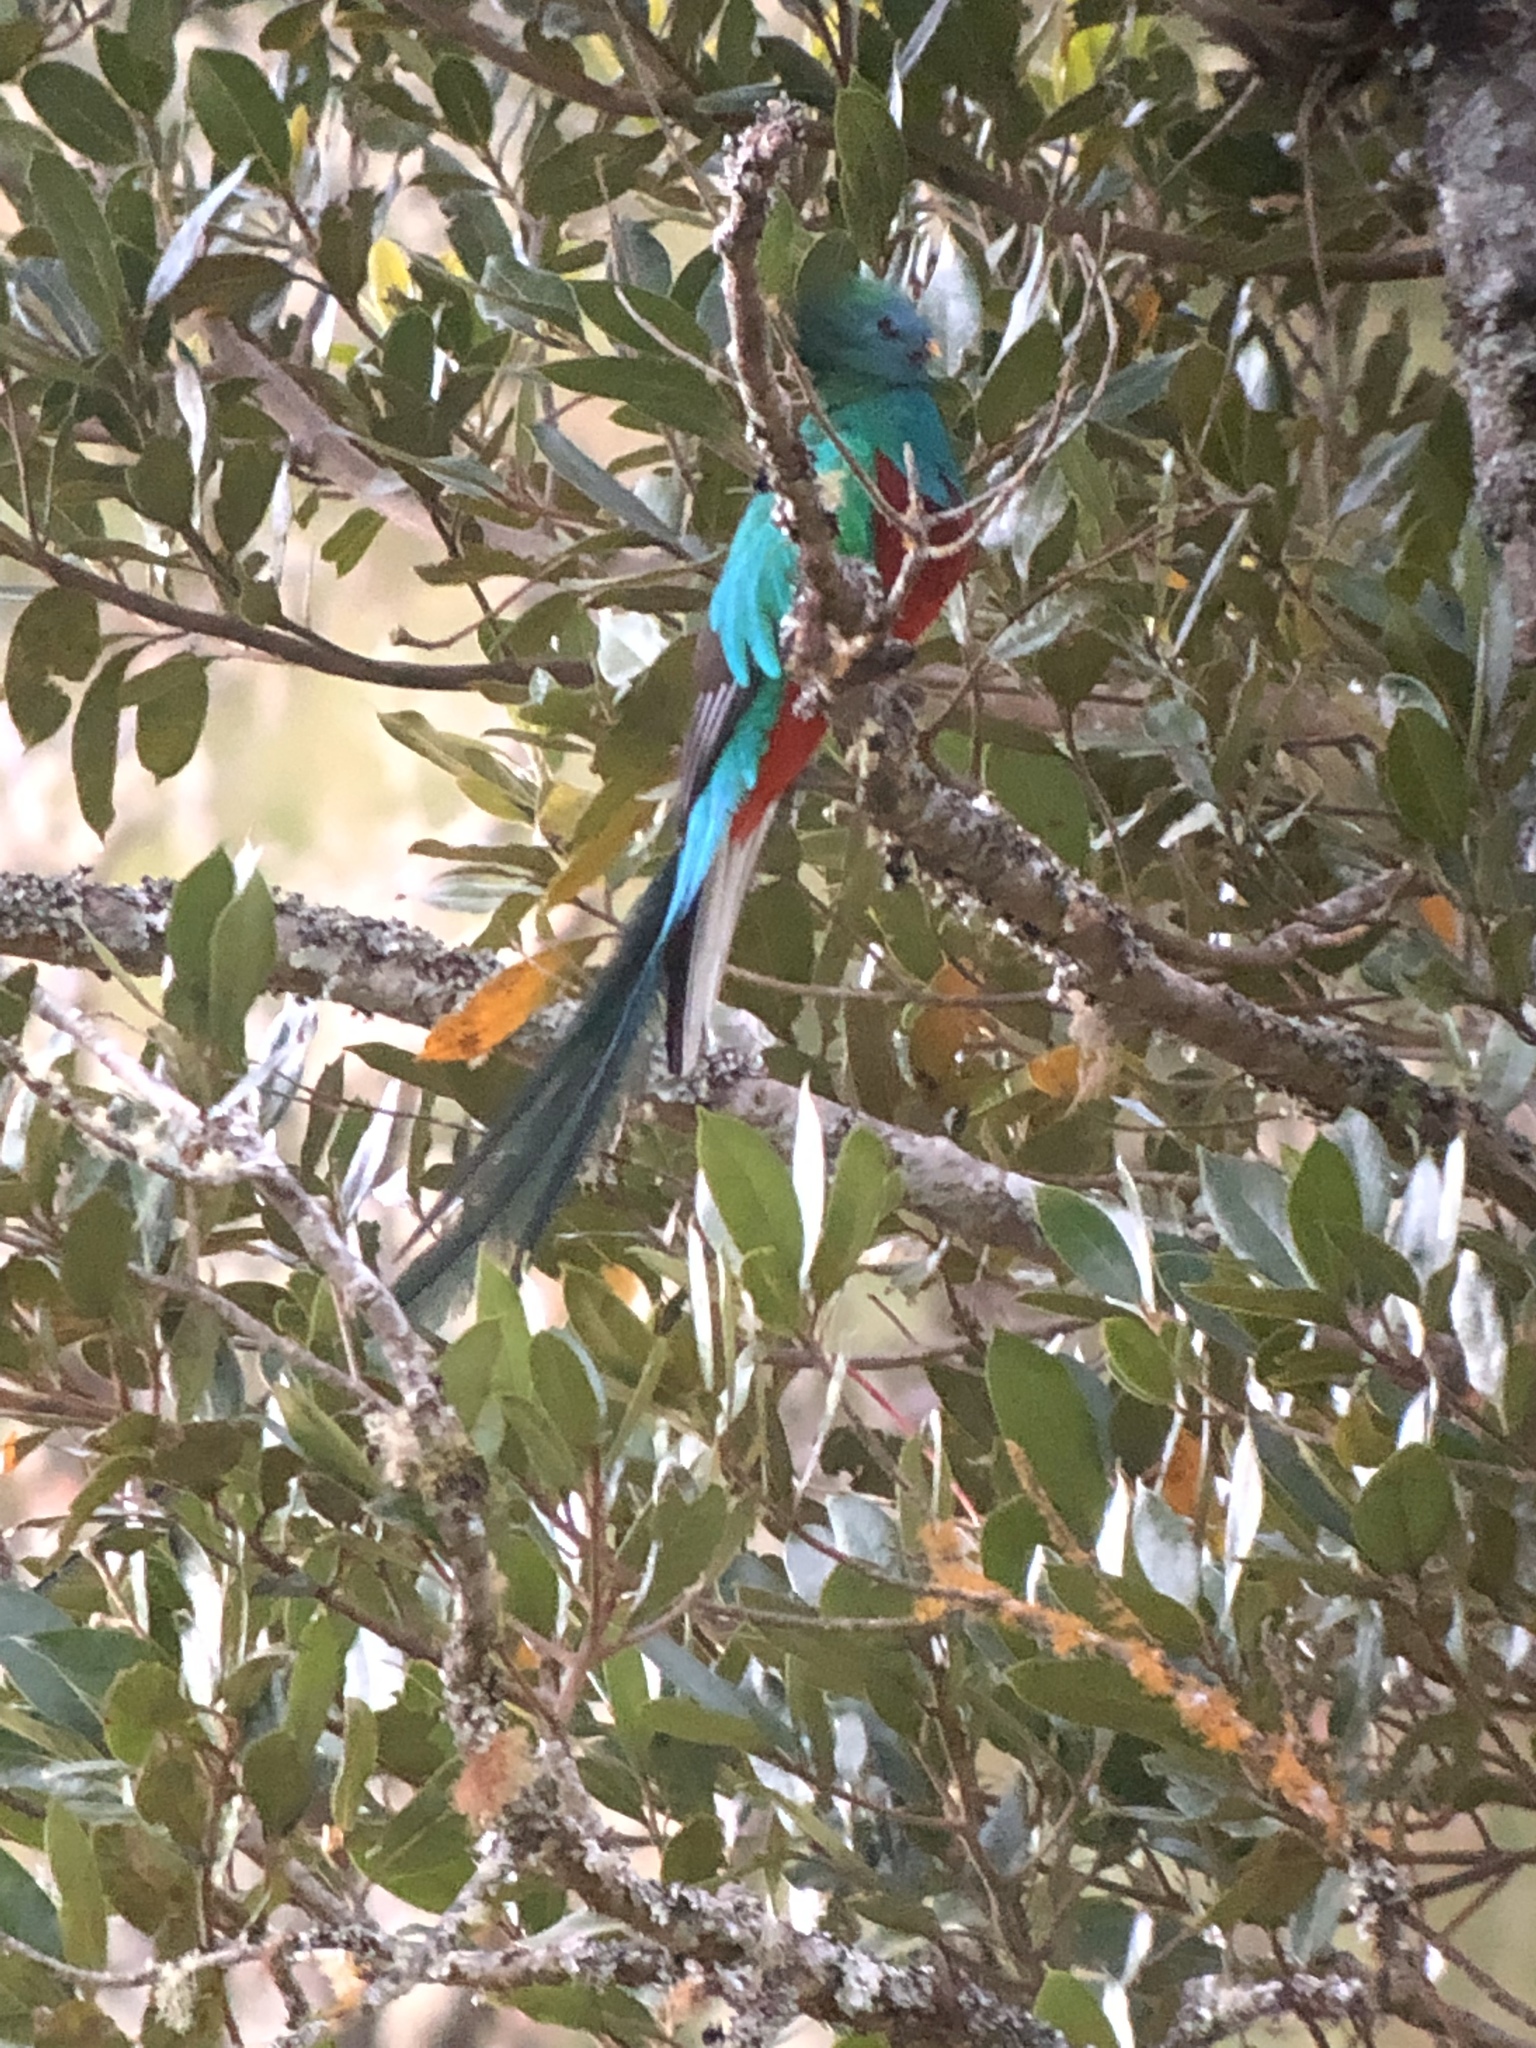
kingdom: Animalia
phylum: Chordata
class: Aves
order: Trogoniformes
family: Trogonidae
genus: Pharomachrus
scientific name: Pharomachrus mocinno
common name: Resplendent quetzal
